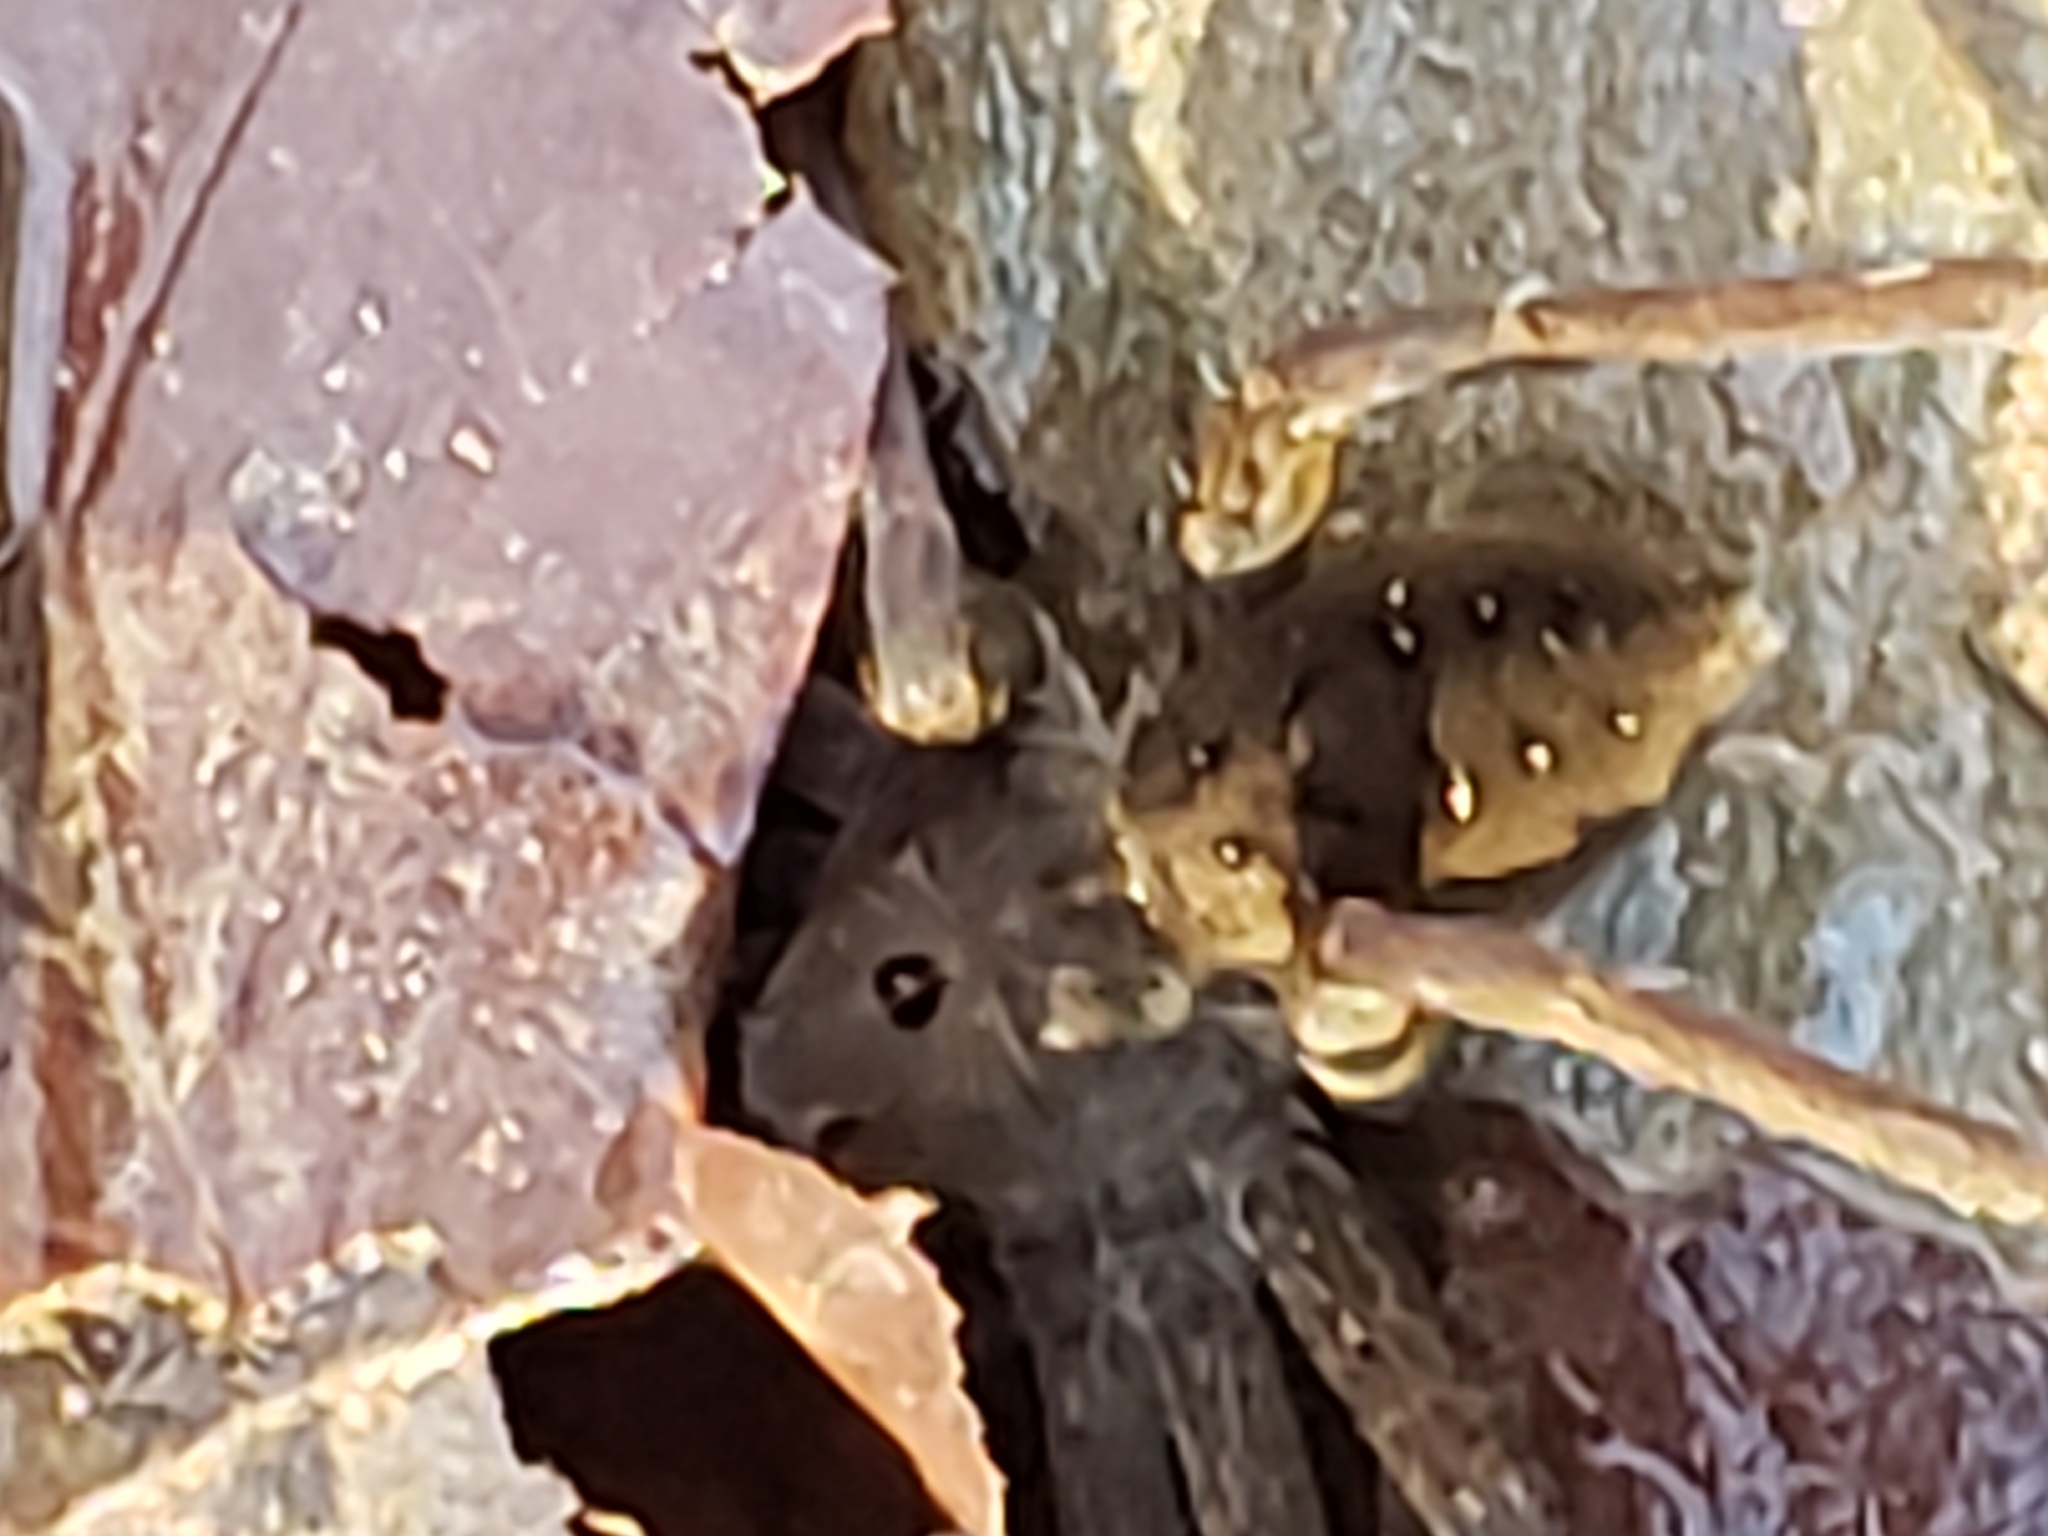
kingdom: Animalia
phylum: Arthropoda
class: Arachnida
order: Araneae
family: Pisauridae
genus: Dolomedes
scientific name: Dolomedes vittatus
